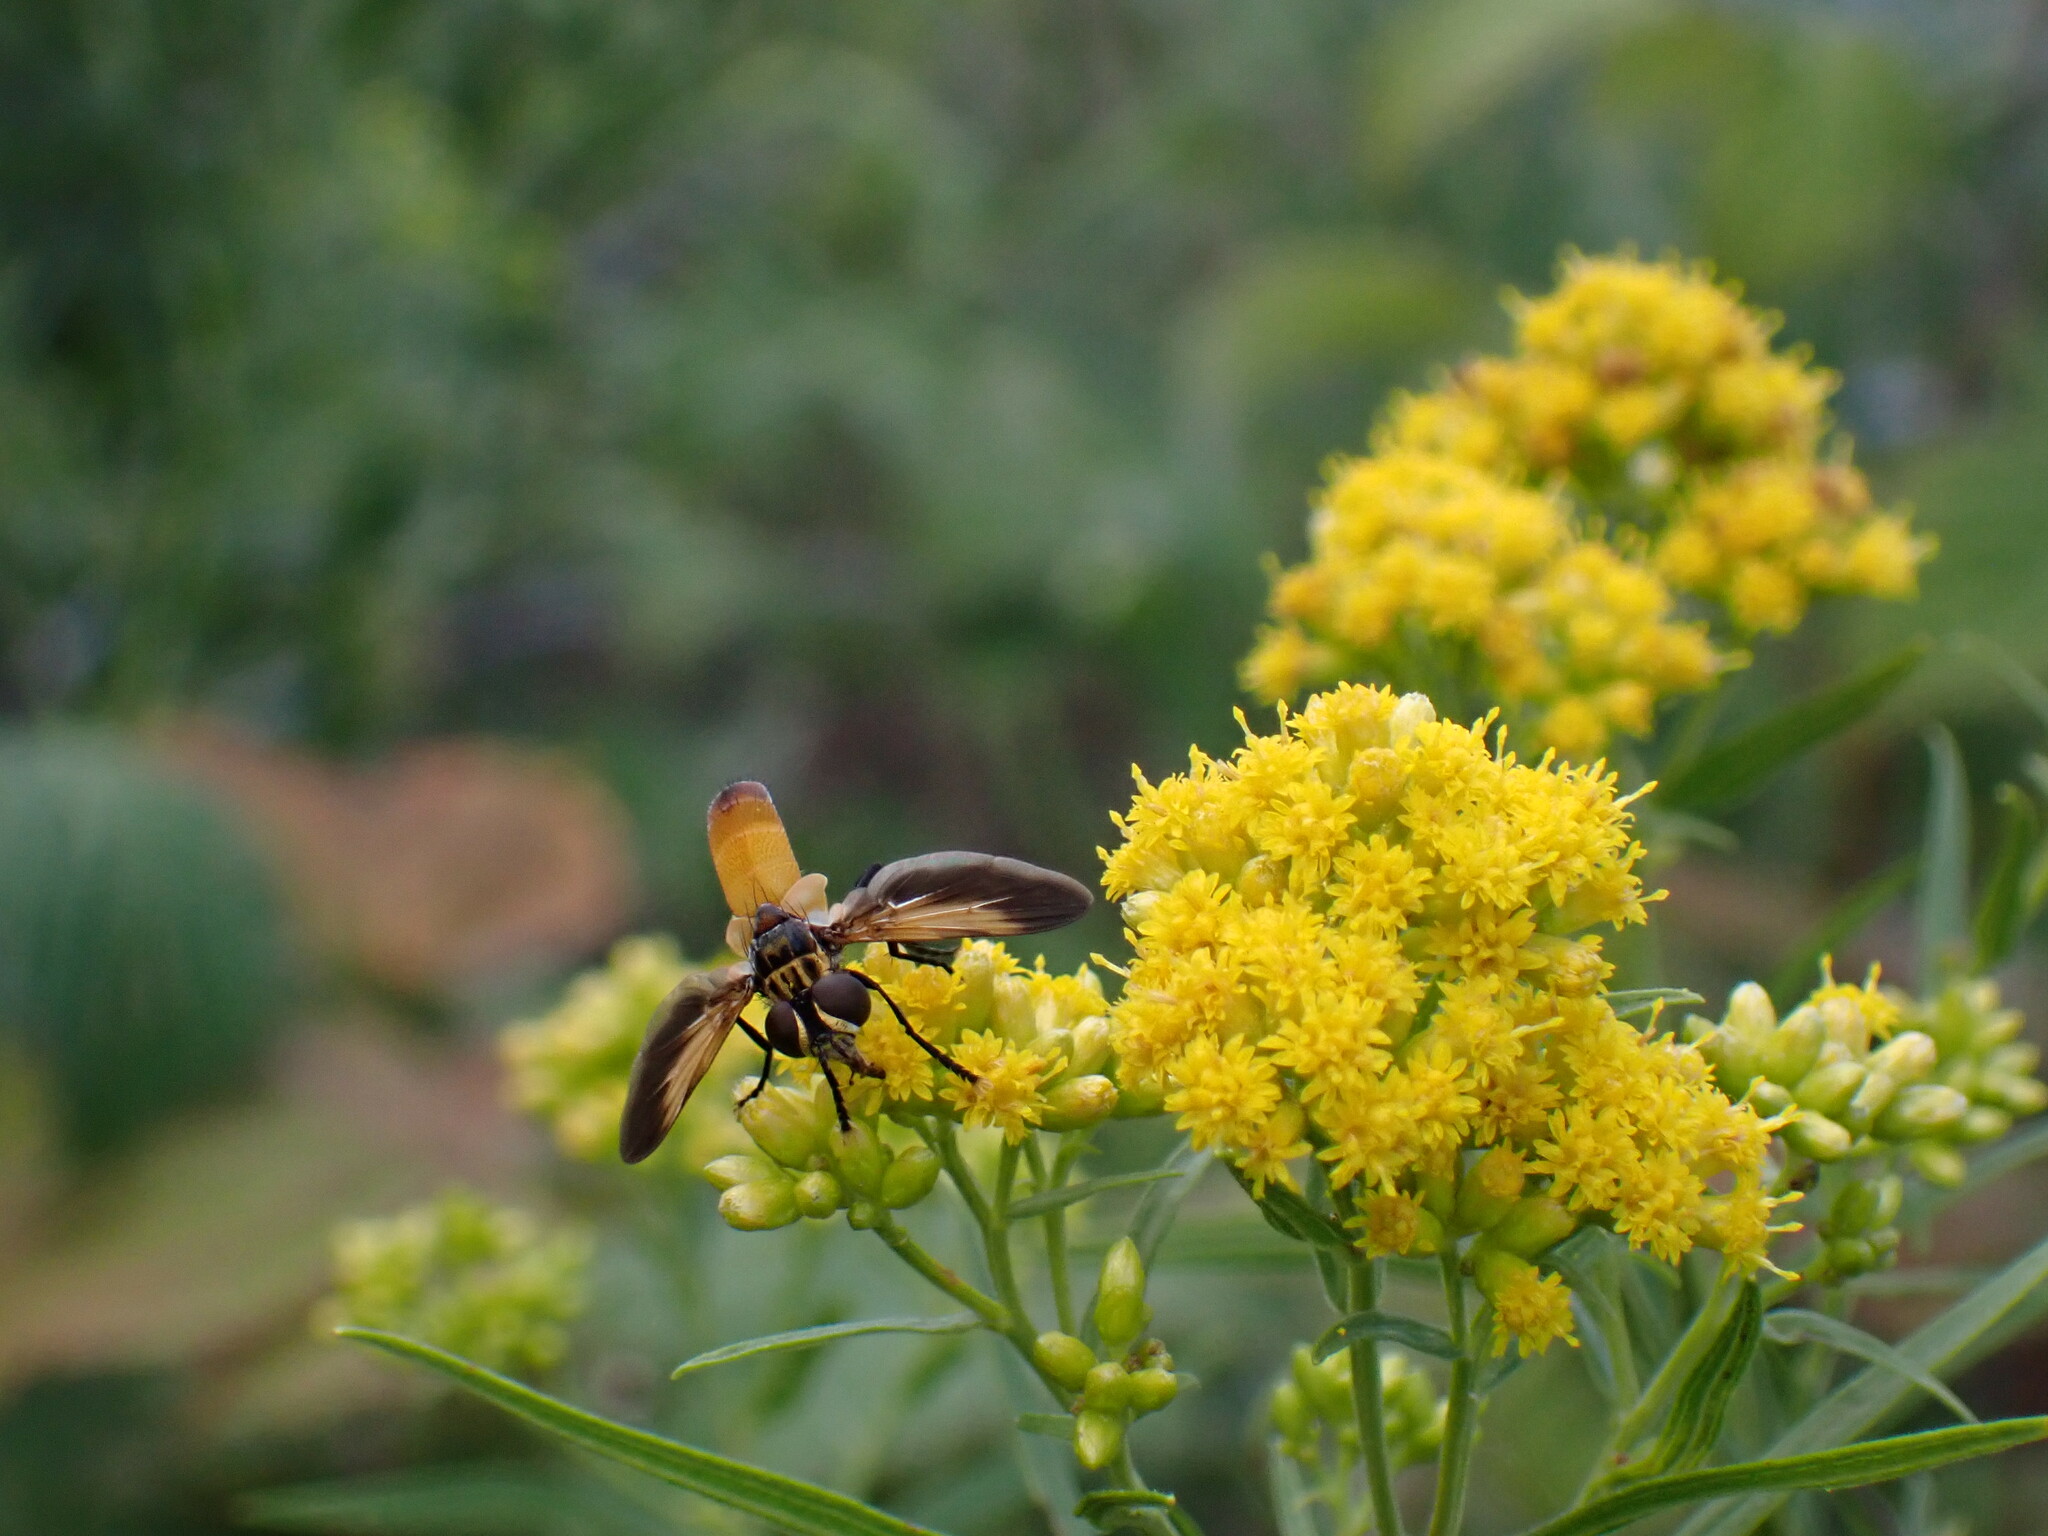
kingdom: Animalia
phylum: Arthropoda
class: Insecta
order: Diptera
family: Tachinidae
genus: Trichopoda
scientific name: Trichopoda pennipes
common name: Tachinid fly
